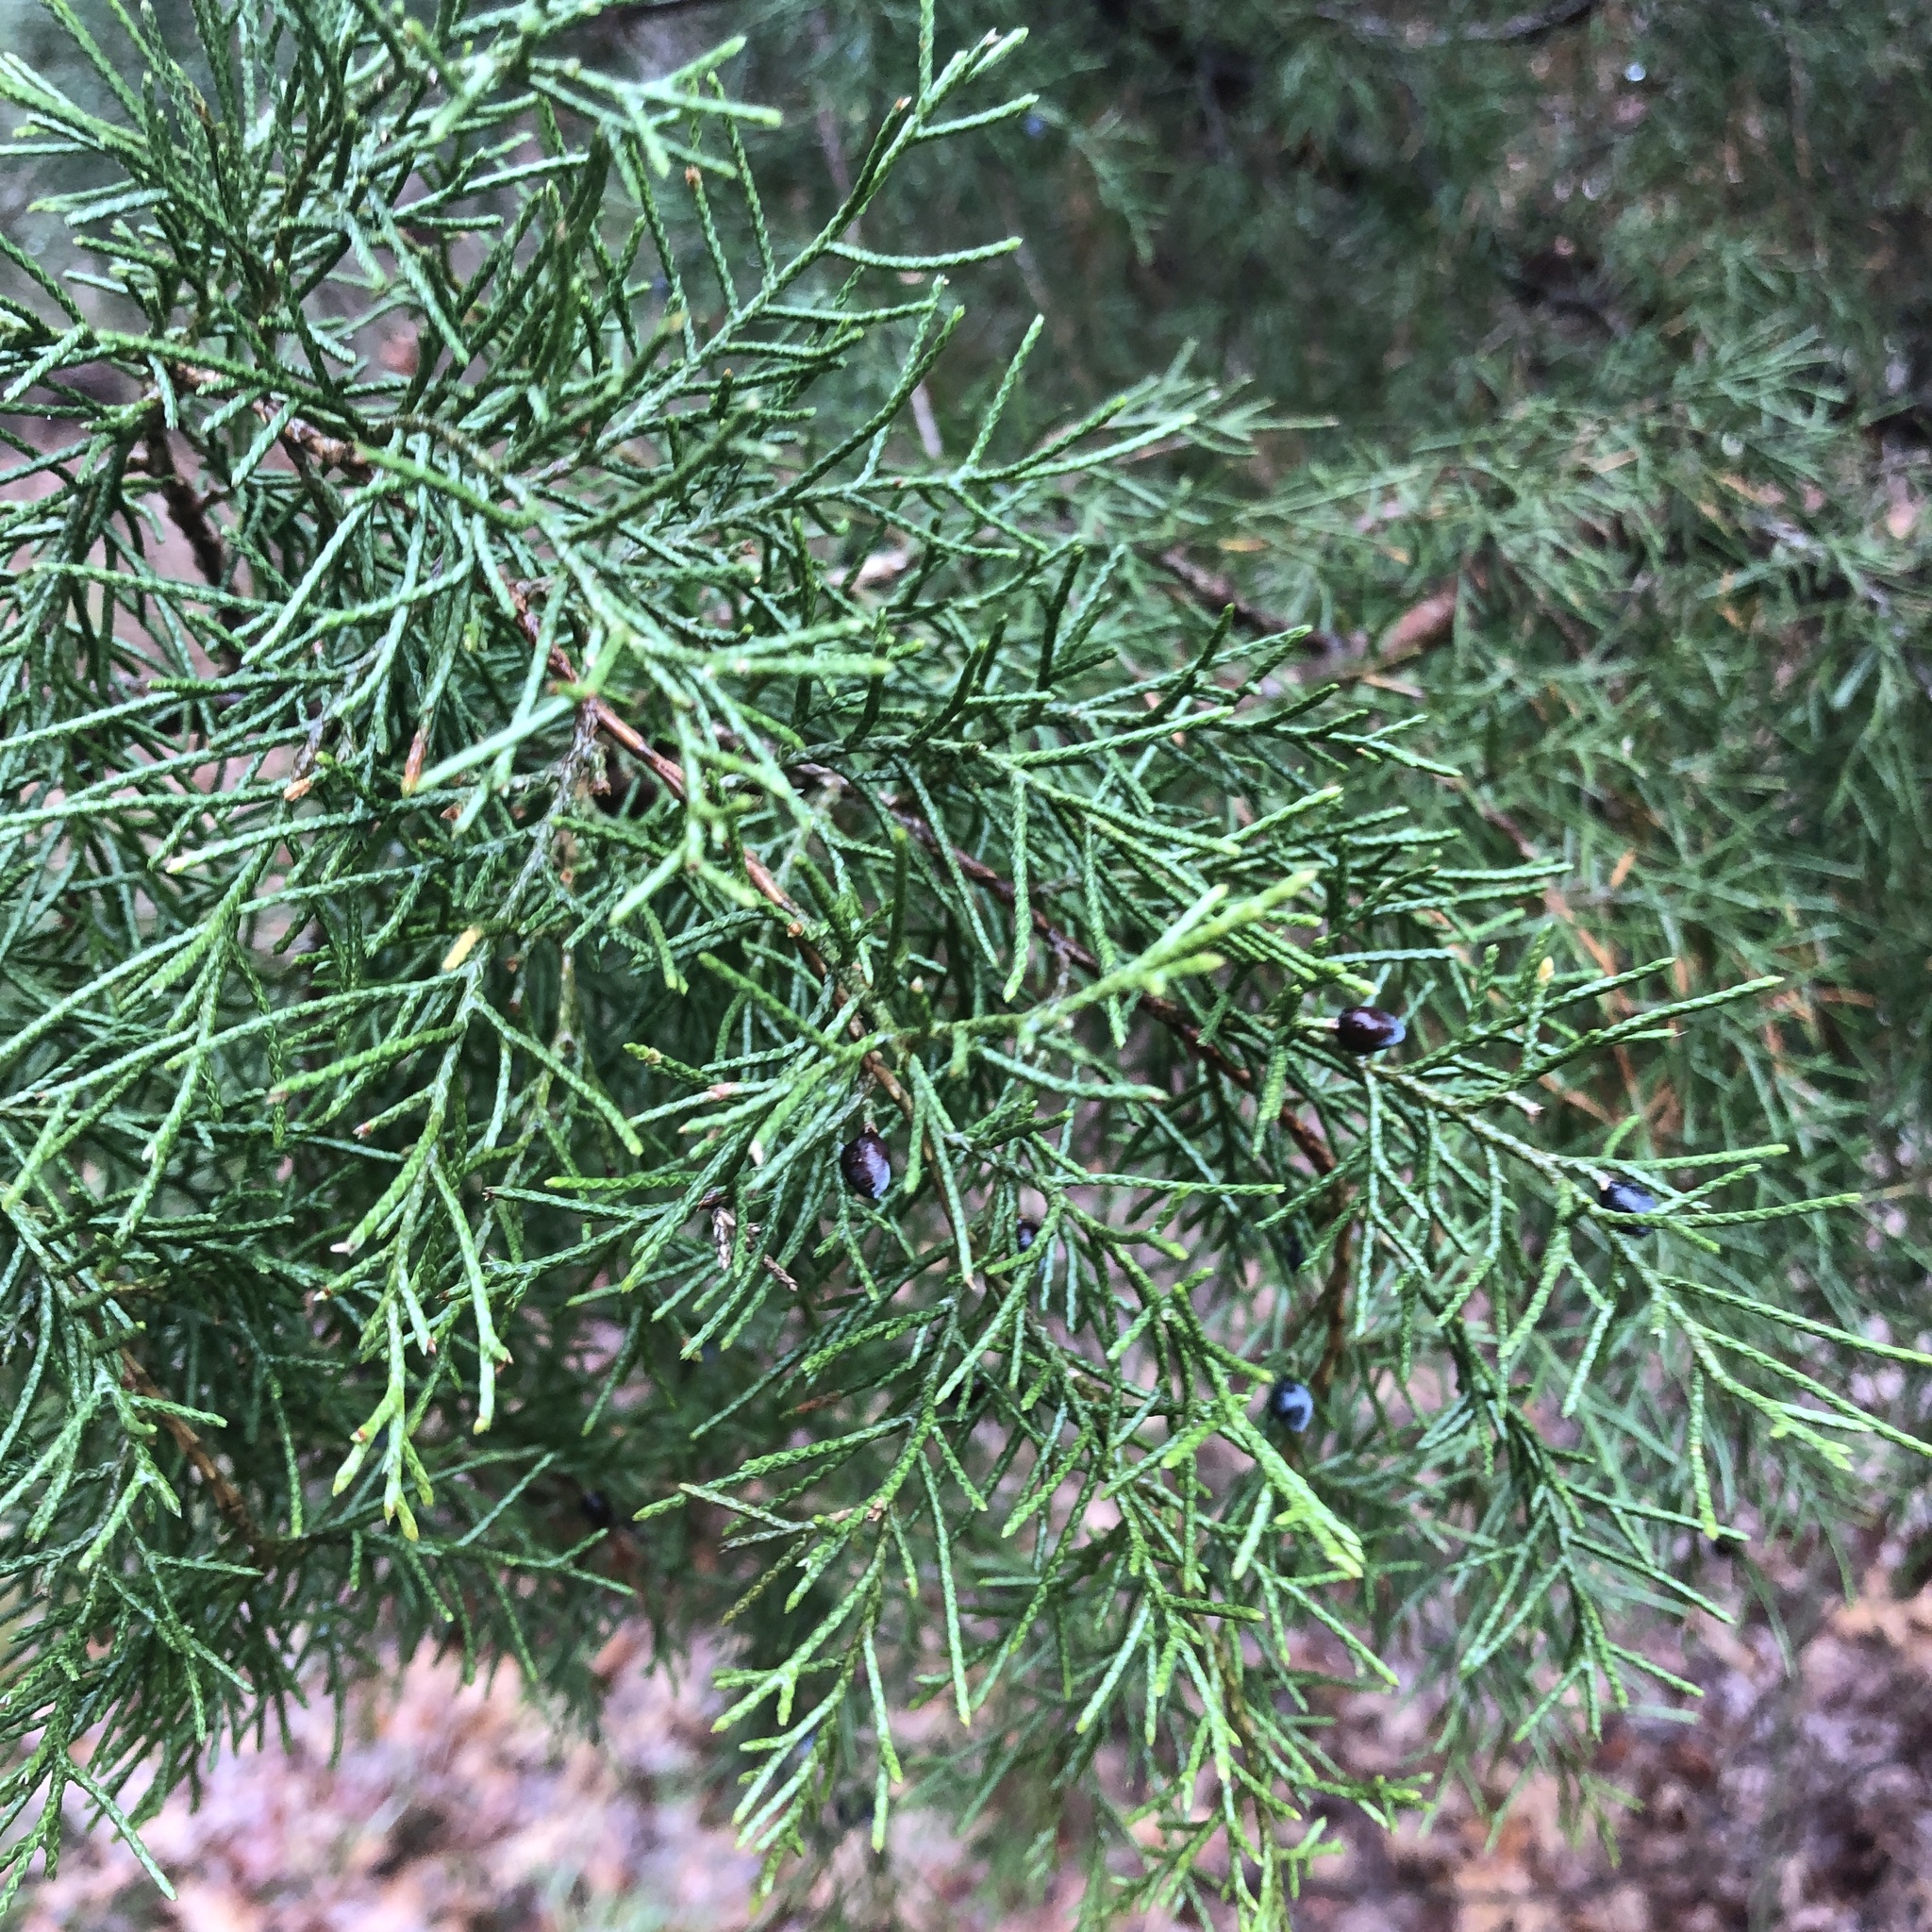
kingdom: Plantae
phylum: Tracheophyta
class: Pinopsida
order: Pinales
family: Cupressaceae
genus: Juniperus
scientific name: Juniperus virginiana
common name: Red juniper
